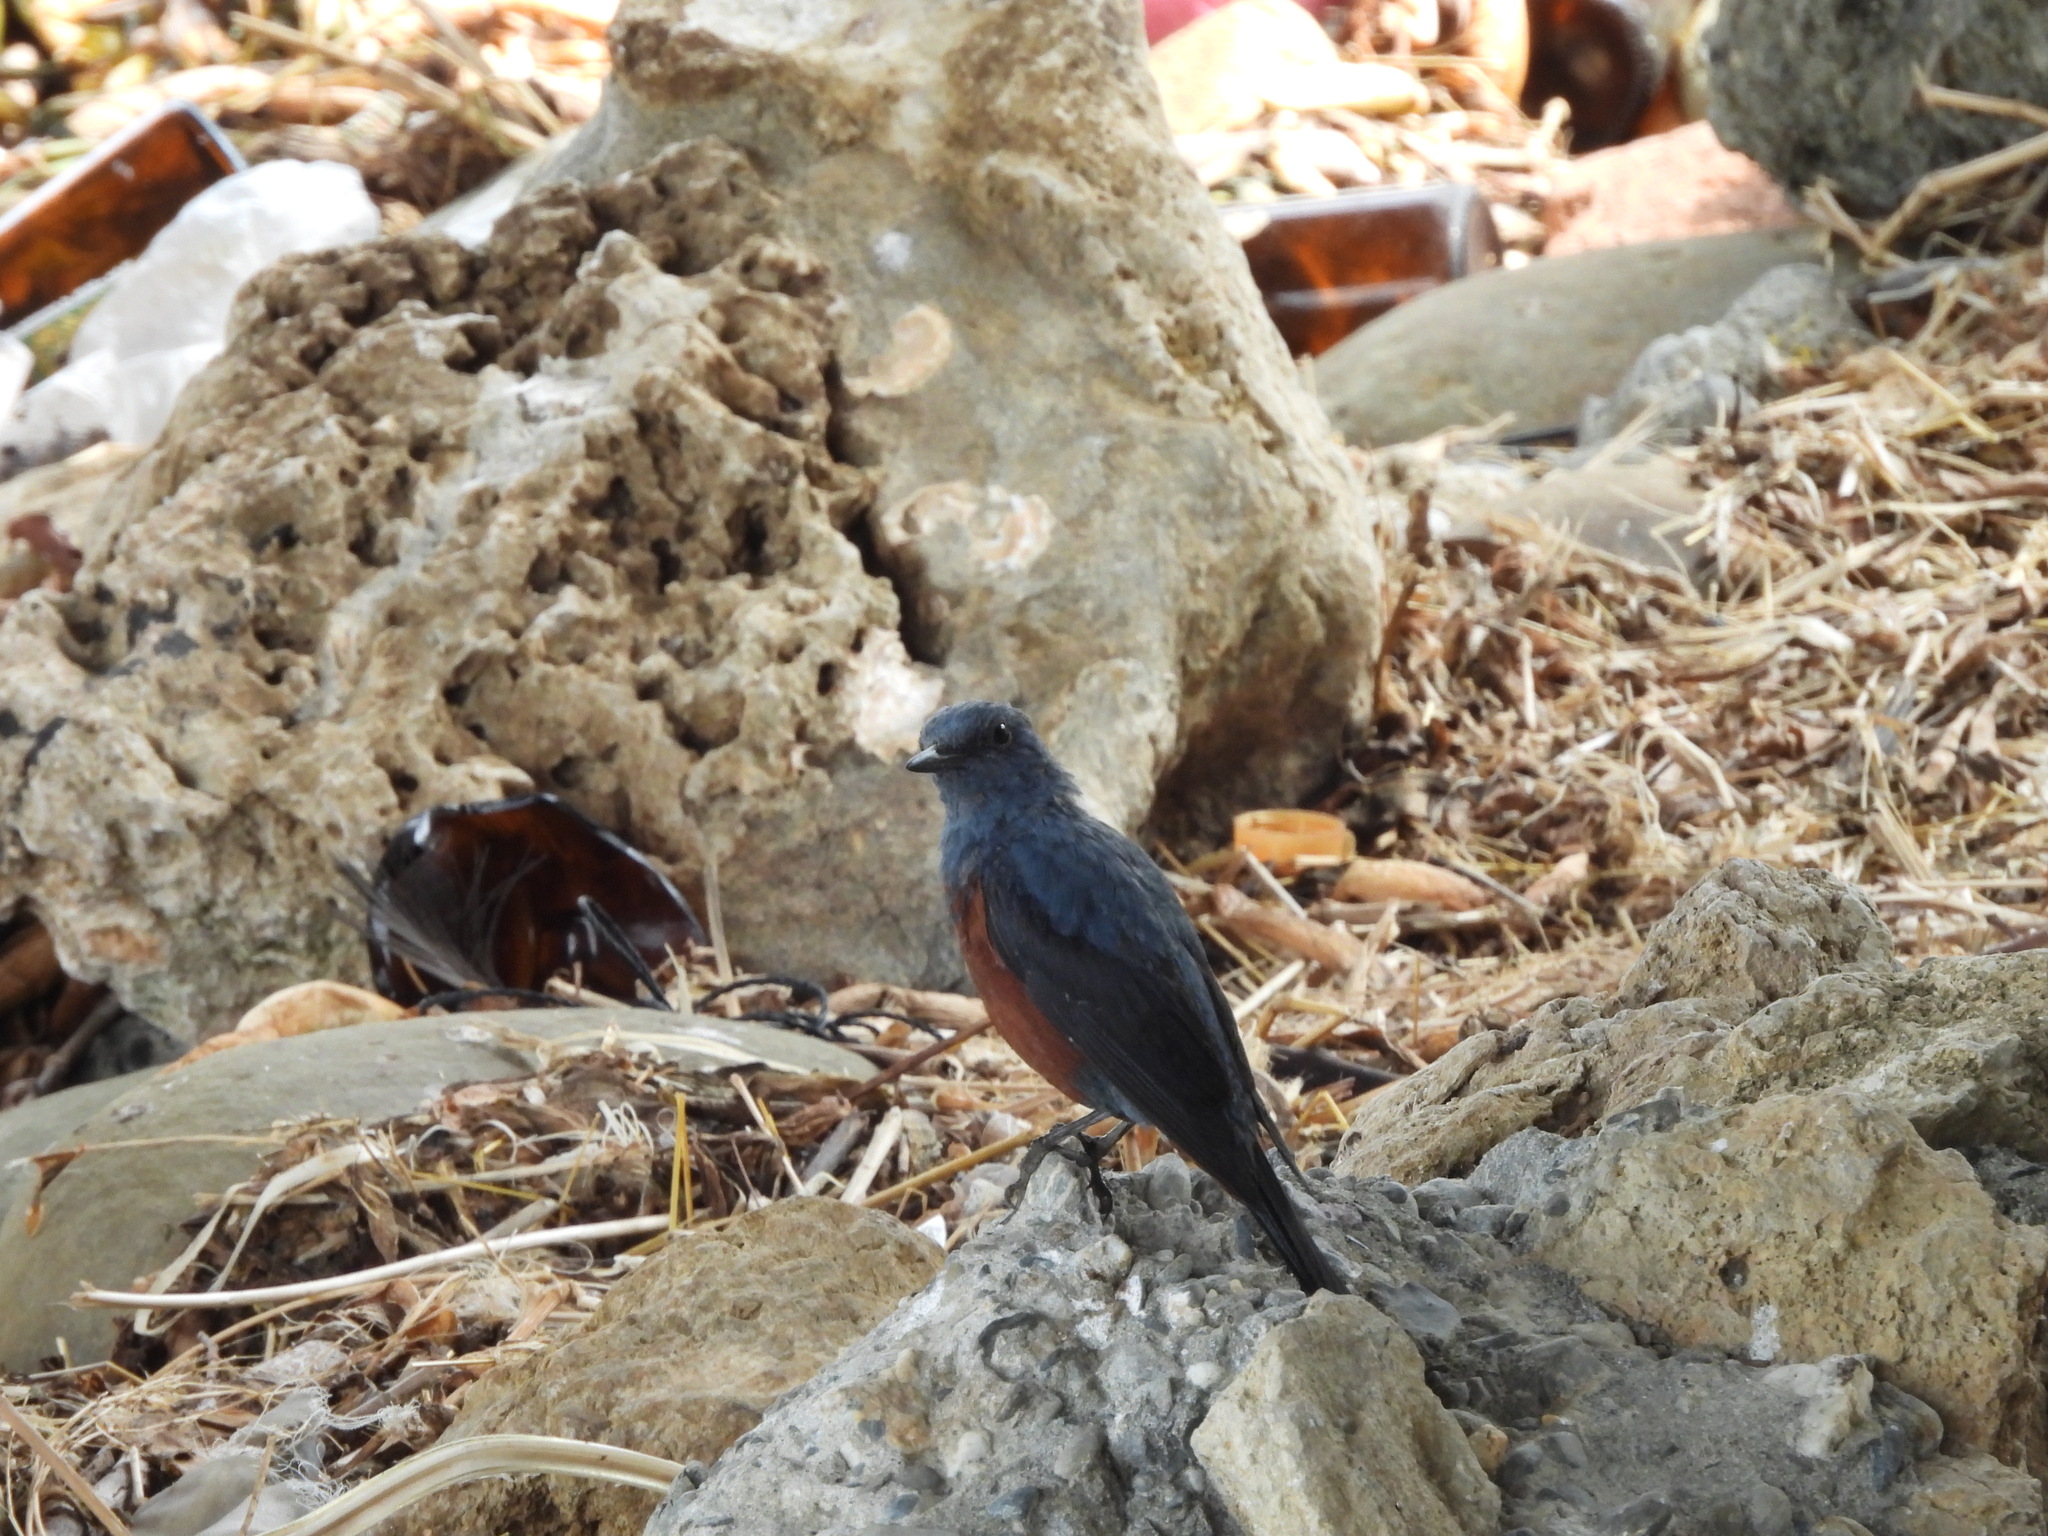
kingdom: Animalia
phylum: Chordata
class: Aves
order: Passeriformes
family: Muscicapidae
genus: Monticola
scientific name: Monticola solitarius
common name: Blue rock thrush
